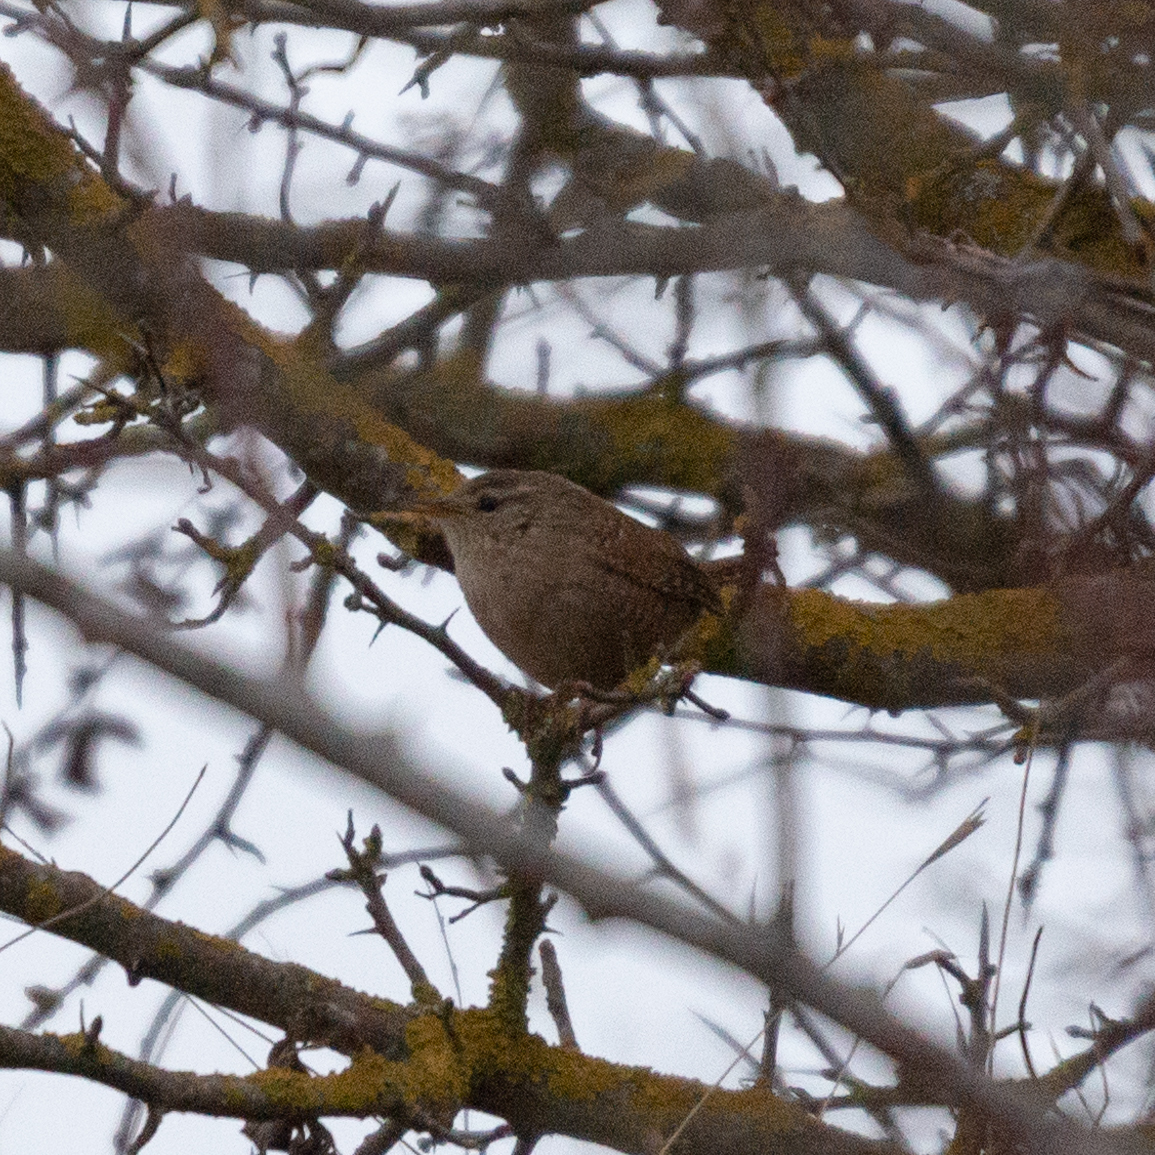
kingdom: Animalia
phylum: Chordata
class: Aves
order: Passeriformes
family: Troglodytidae
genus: Troglodytes
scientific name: Troglodytes troglodytes
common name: Eurasian wren
